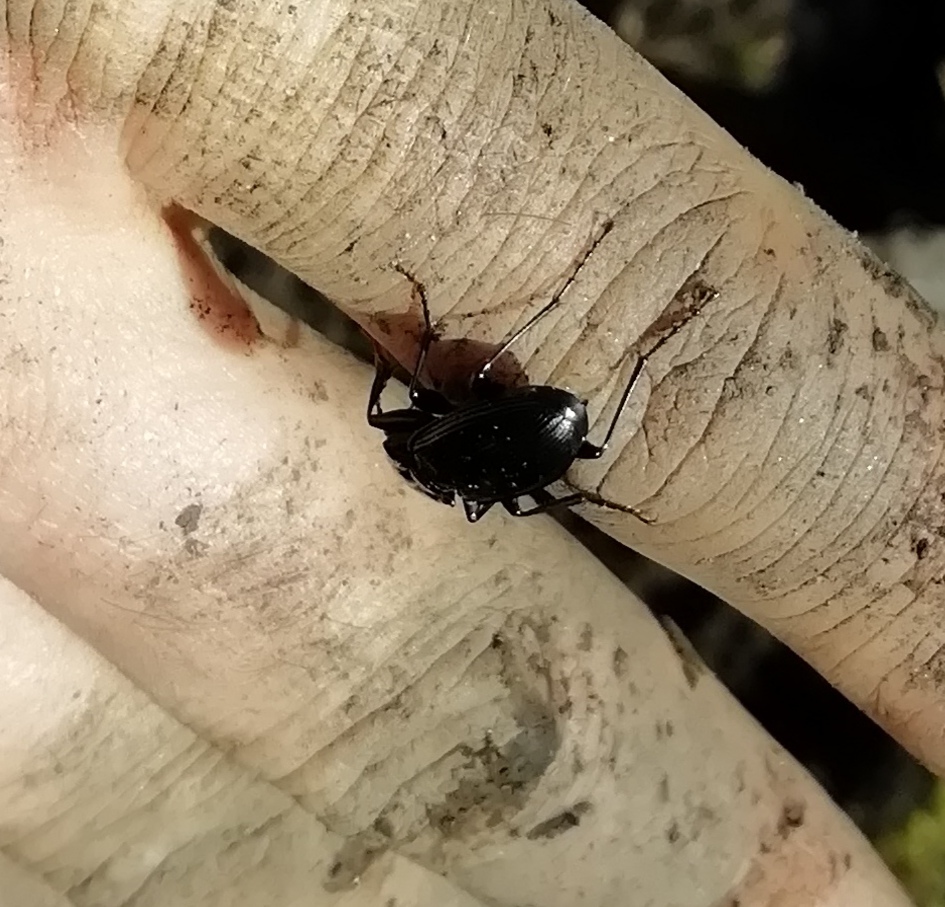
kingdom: Animalia
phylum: Arthropoda
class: Insecta
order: Coleoptera
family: Carabidae
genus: Pterostichus
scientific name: Pterostichus cristatus
